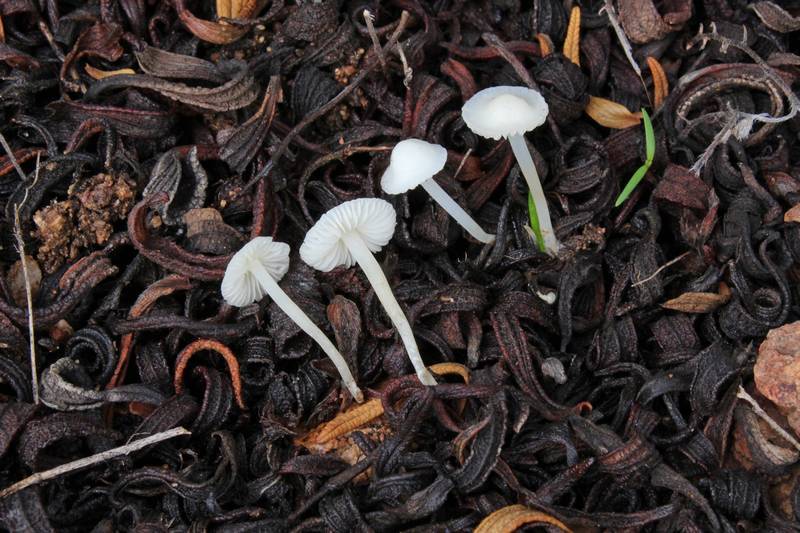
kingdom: Fungi
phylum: Basidiomycota
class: Agaricomycetes
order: Agaricales
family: Mycenaceae
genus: Hemimycena
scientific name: Hemimycena conidiogena
